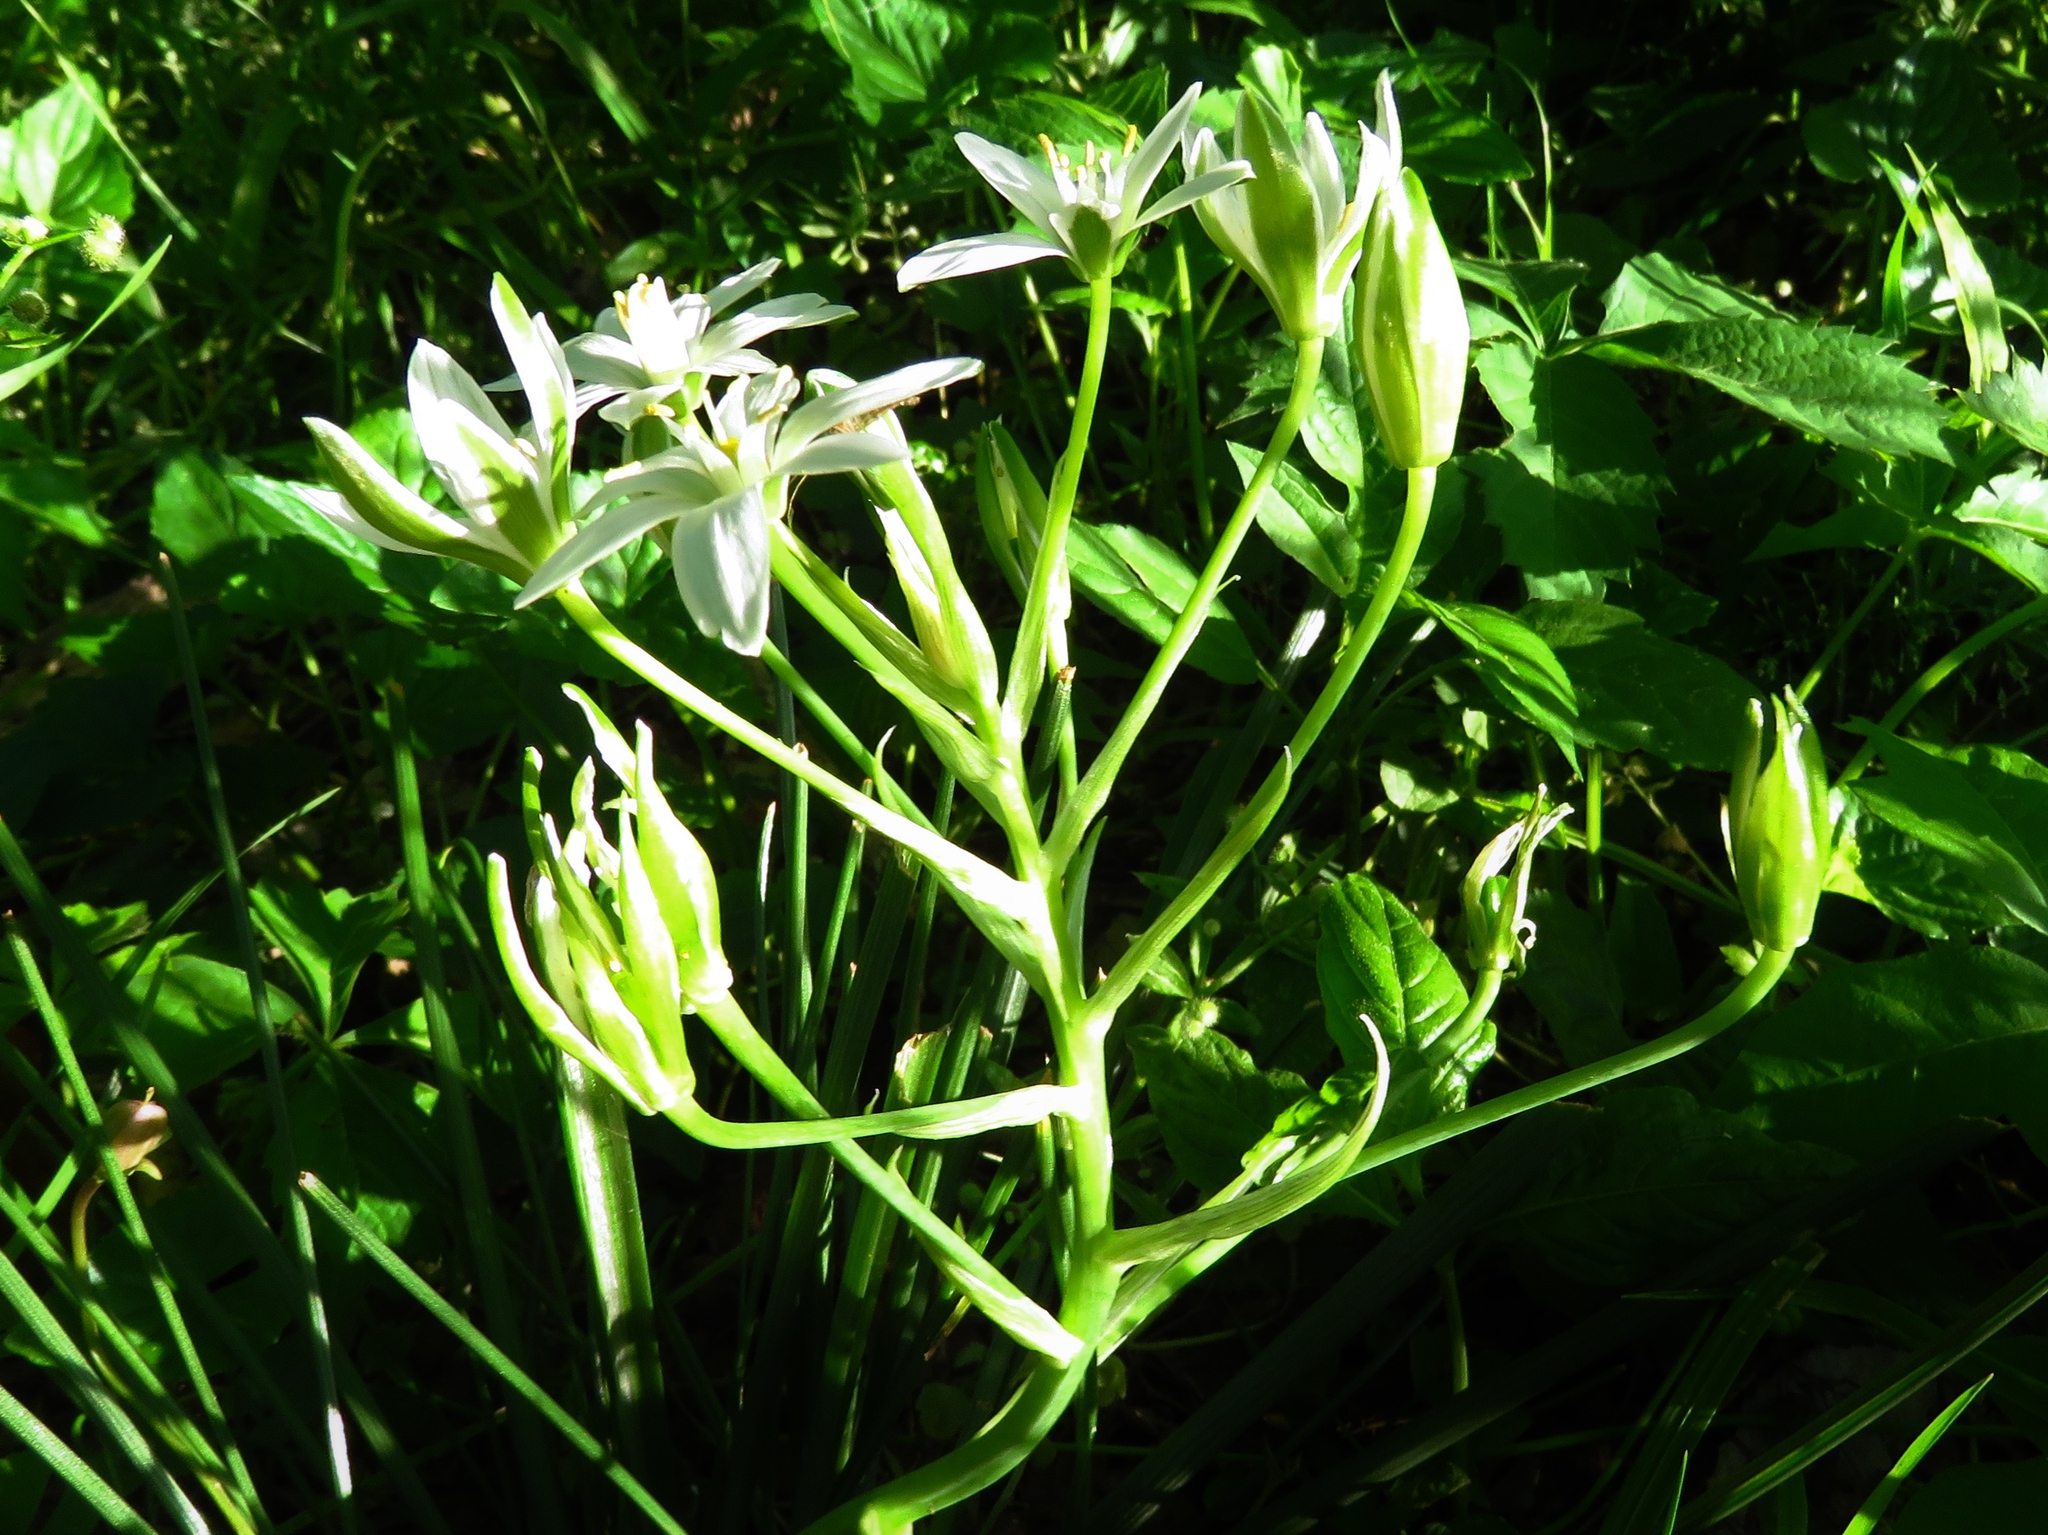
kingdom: Plantae
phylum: Tracheophyta
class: Liliopsida
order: Asparagales
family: Asparagaceae
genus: Ornithogalum
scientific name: Ornithogalum umbellatum
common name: Garden star-of-bethlehem
